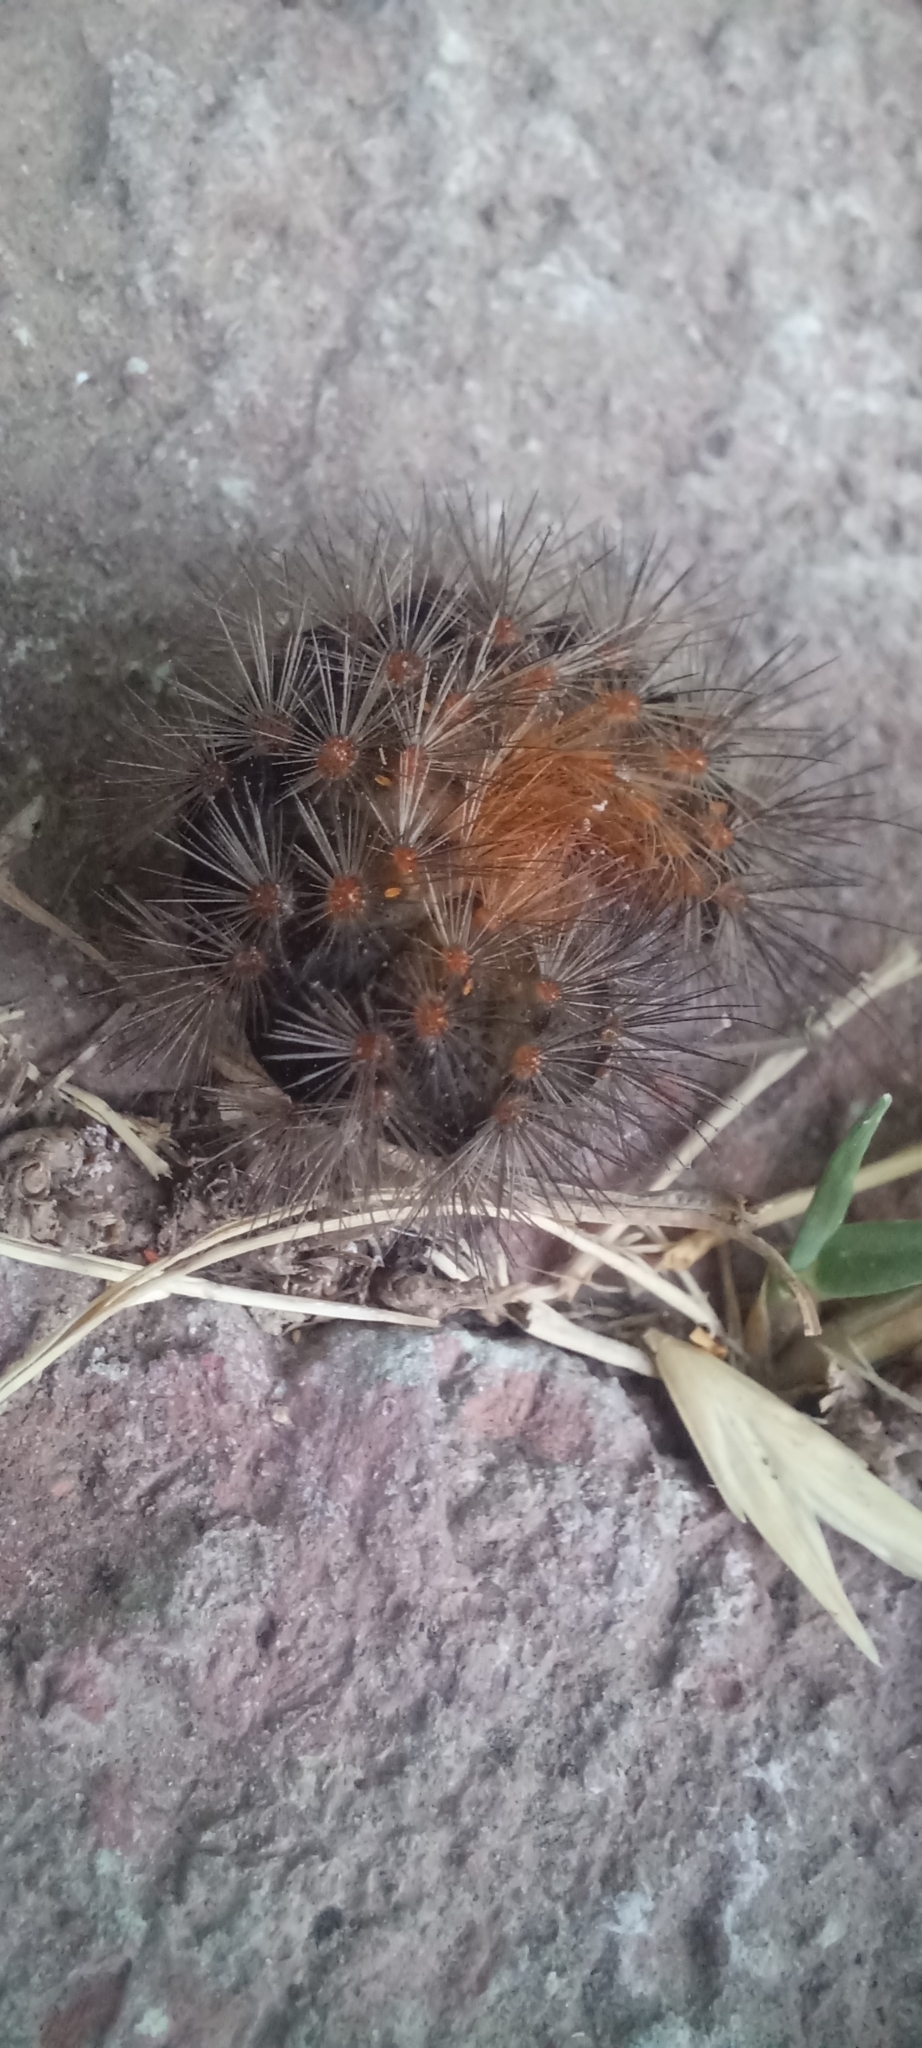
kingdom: Animalia
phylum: Arthropoda
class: Insecta
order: Lepidoptera
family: Erebidae
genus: Hypercompe
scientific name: Hypercompe indecisa
